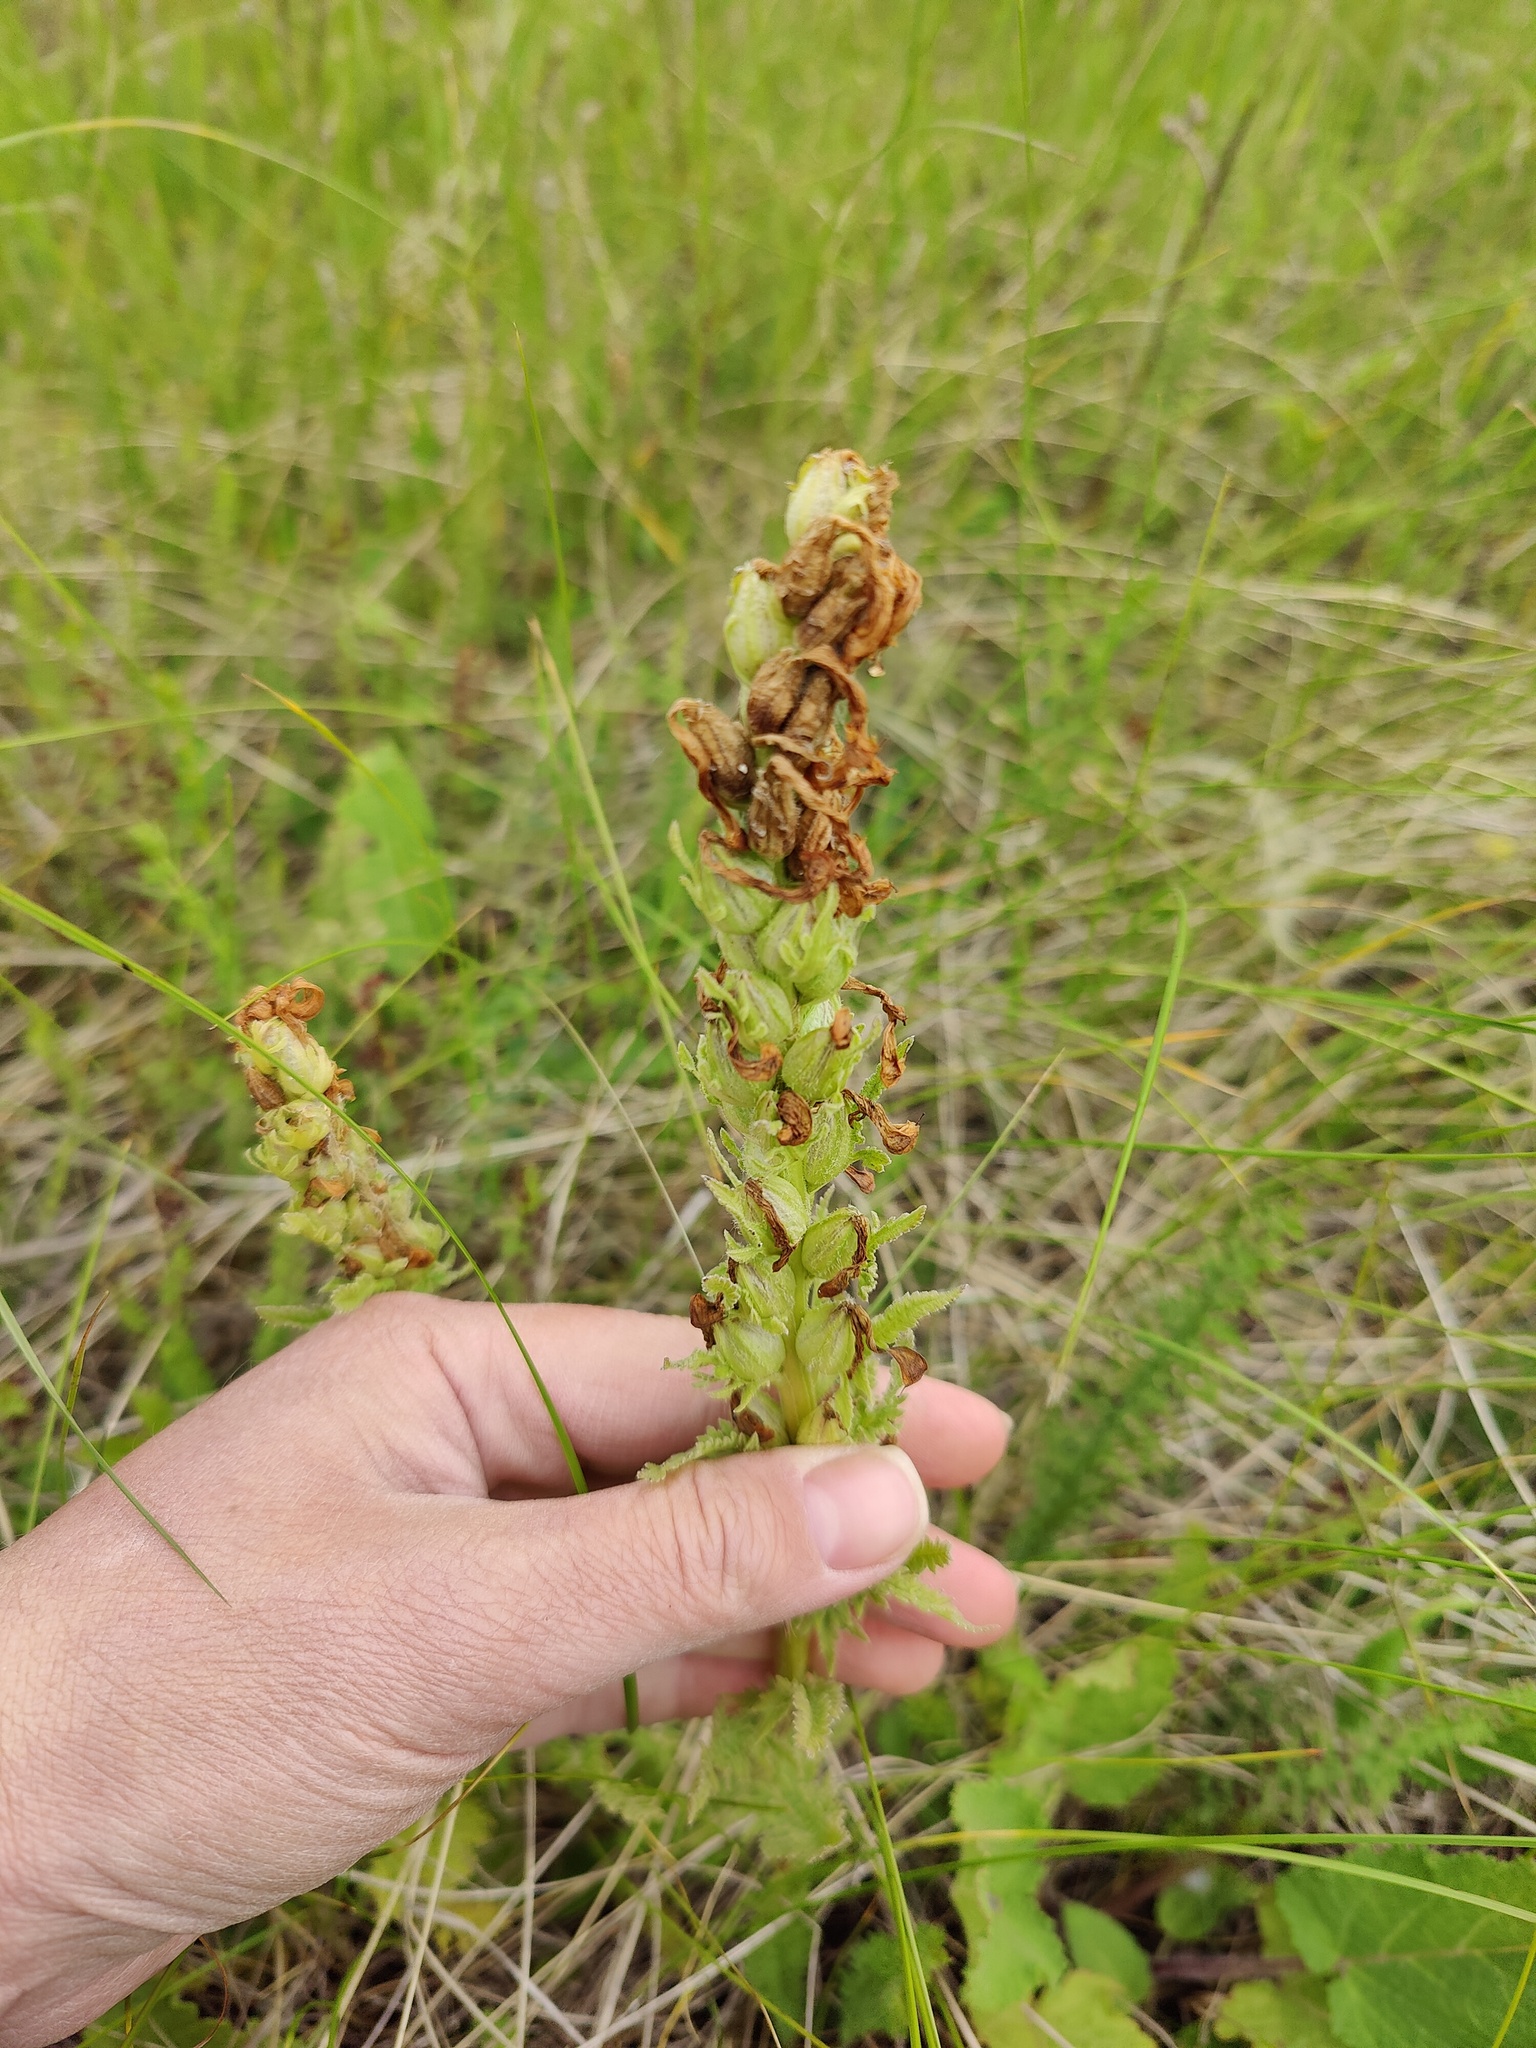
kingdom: Plantae
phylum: Tracheophyta
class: Magnoliopsida
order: Lamiales
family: Orobanchaceae
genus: Pedicularis
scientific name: Pedicularis kaufmannii
